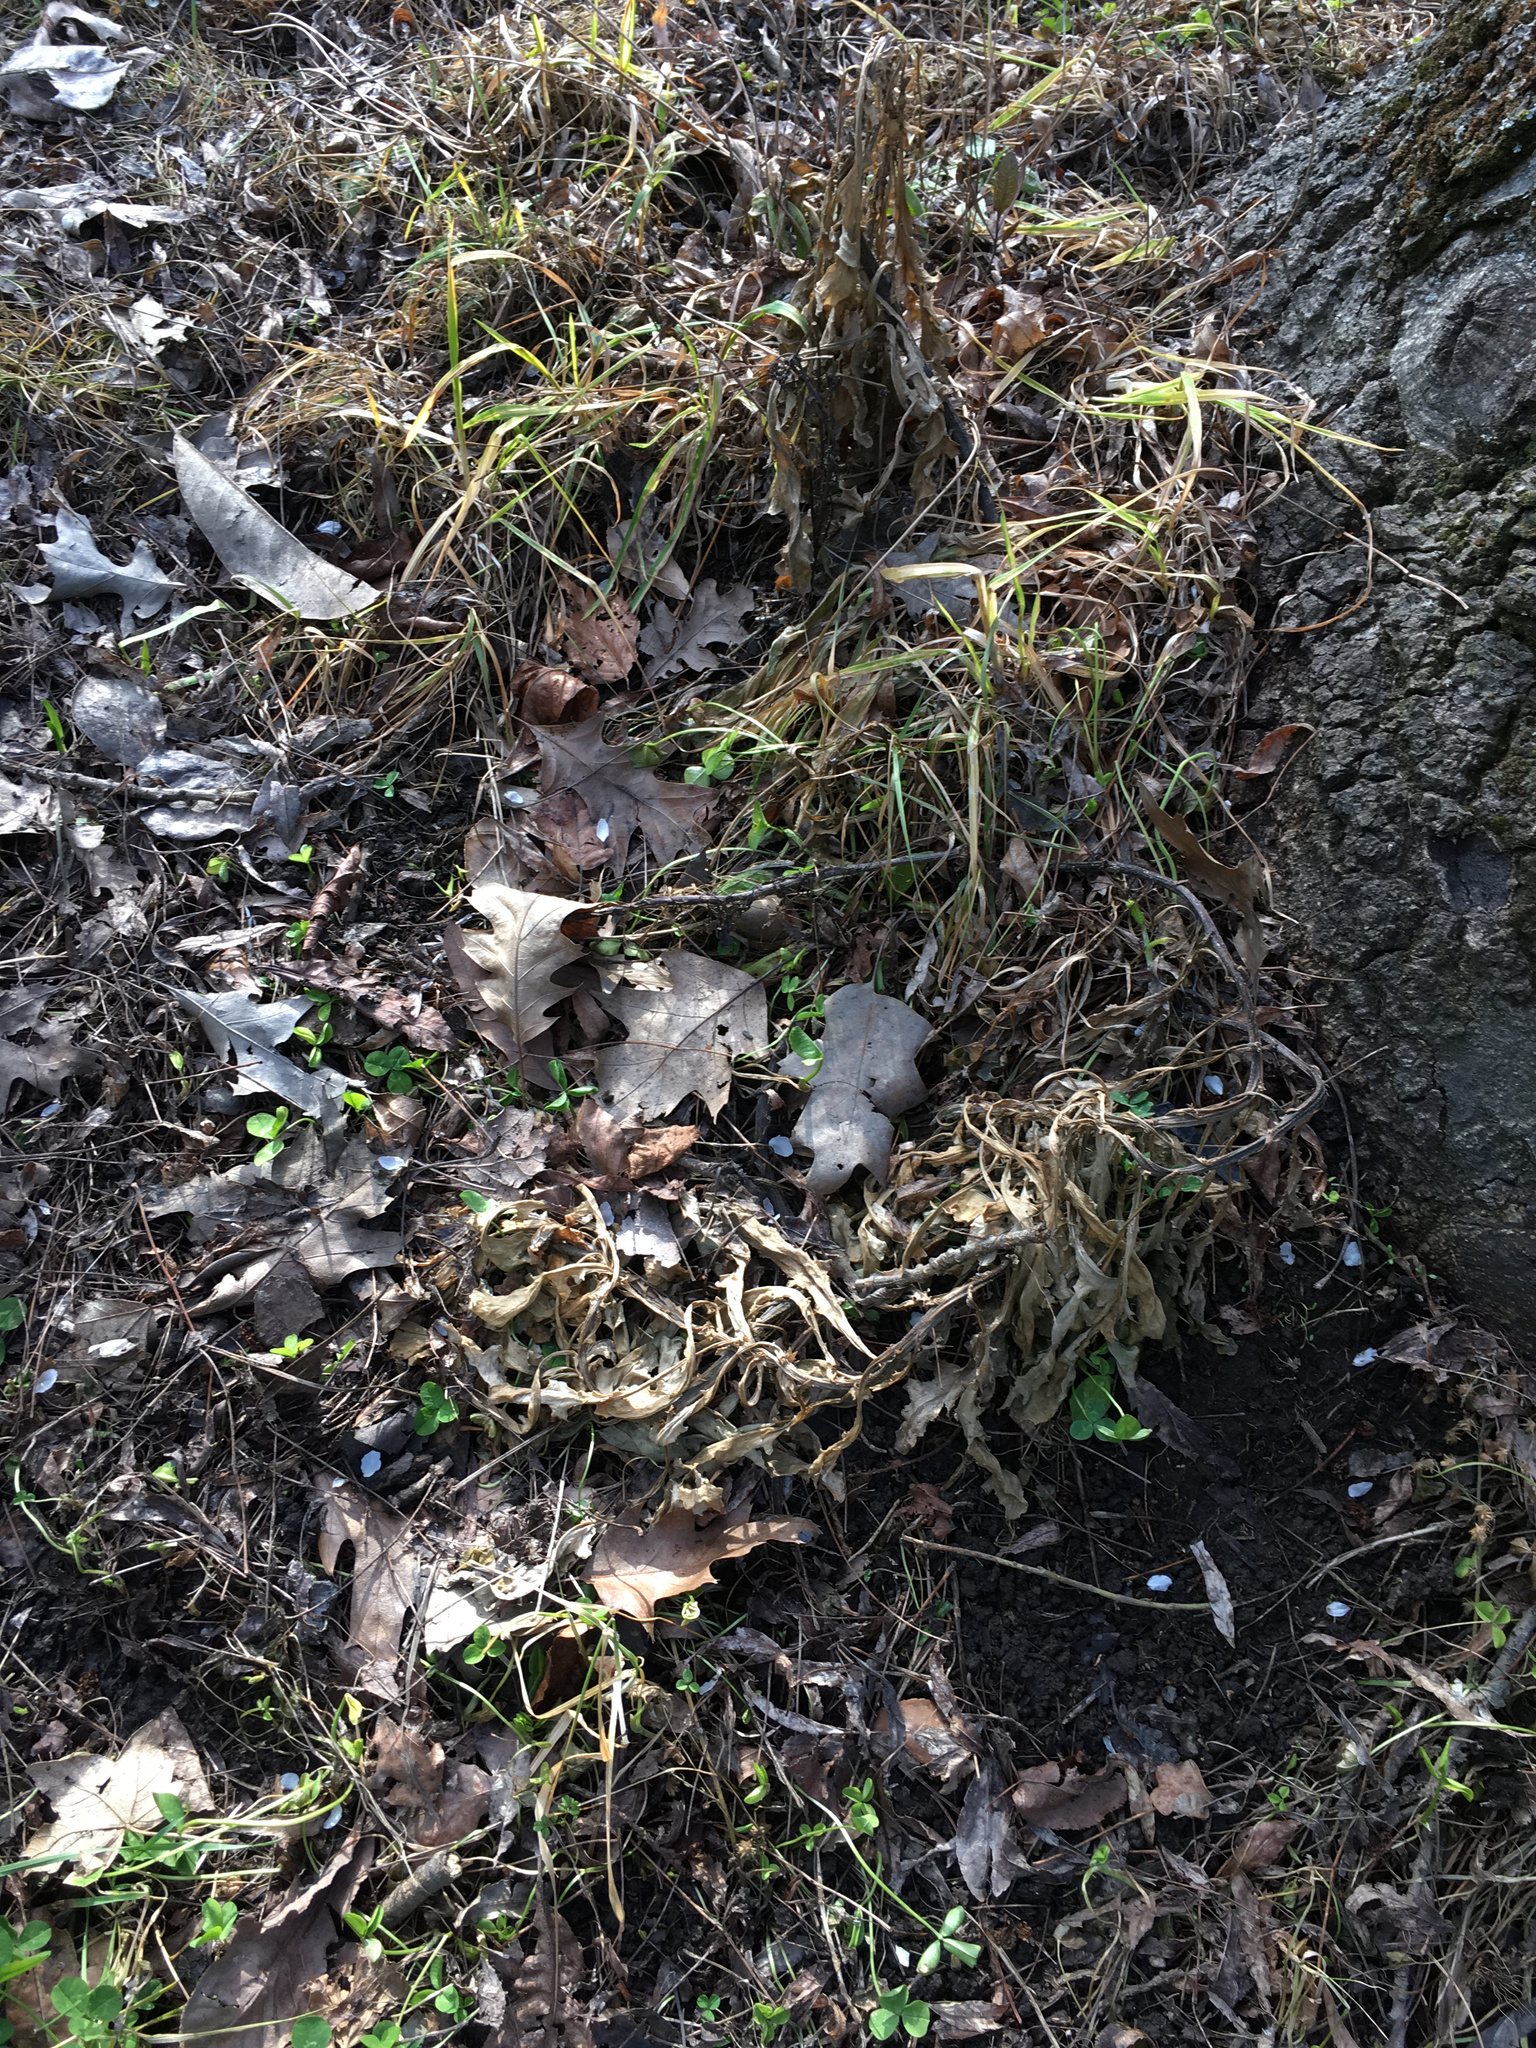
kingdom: Plantae
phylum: Tracheophyta
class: Magnoliopsida
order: Asterales
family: Asteraceae
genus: Senecio
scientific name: Senecio glomeratus
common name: Cutleaf burnweed
